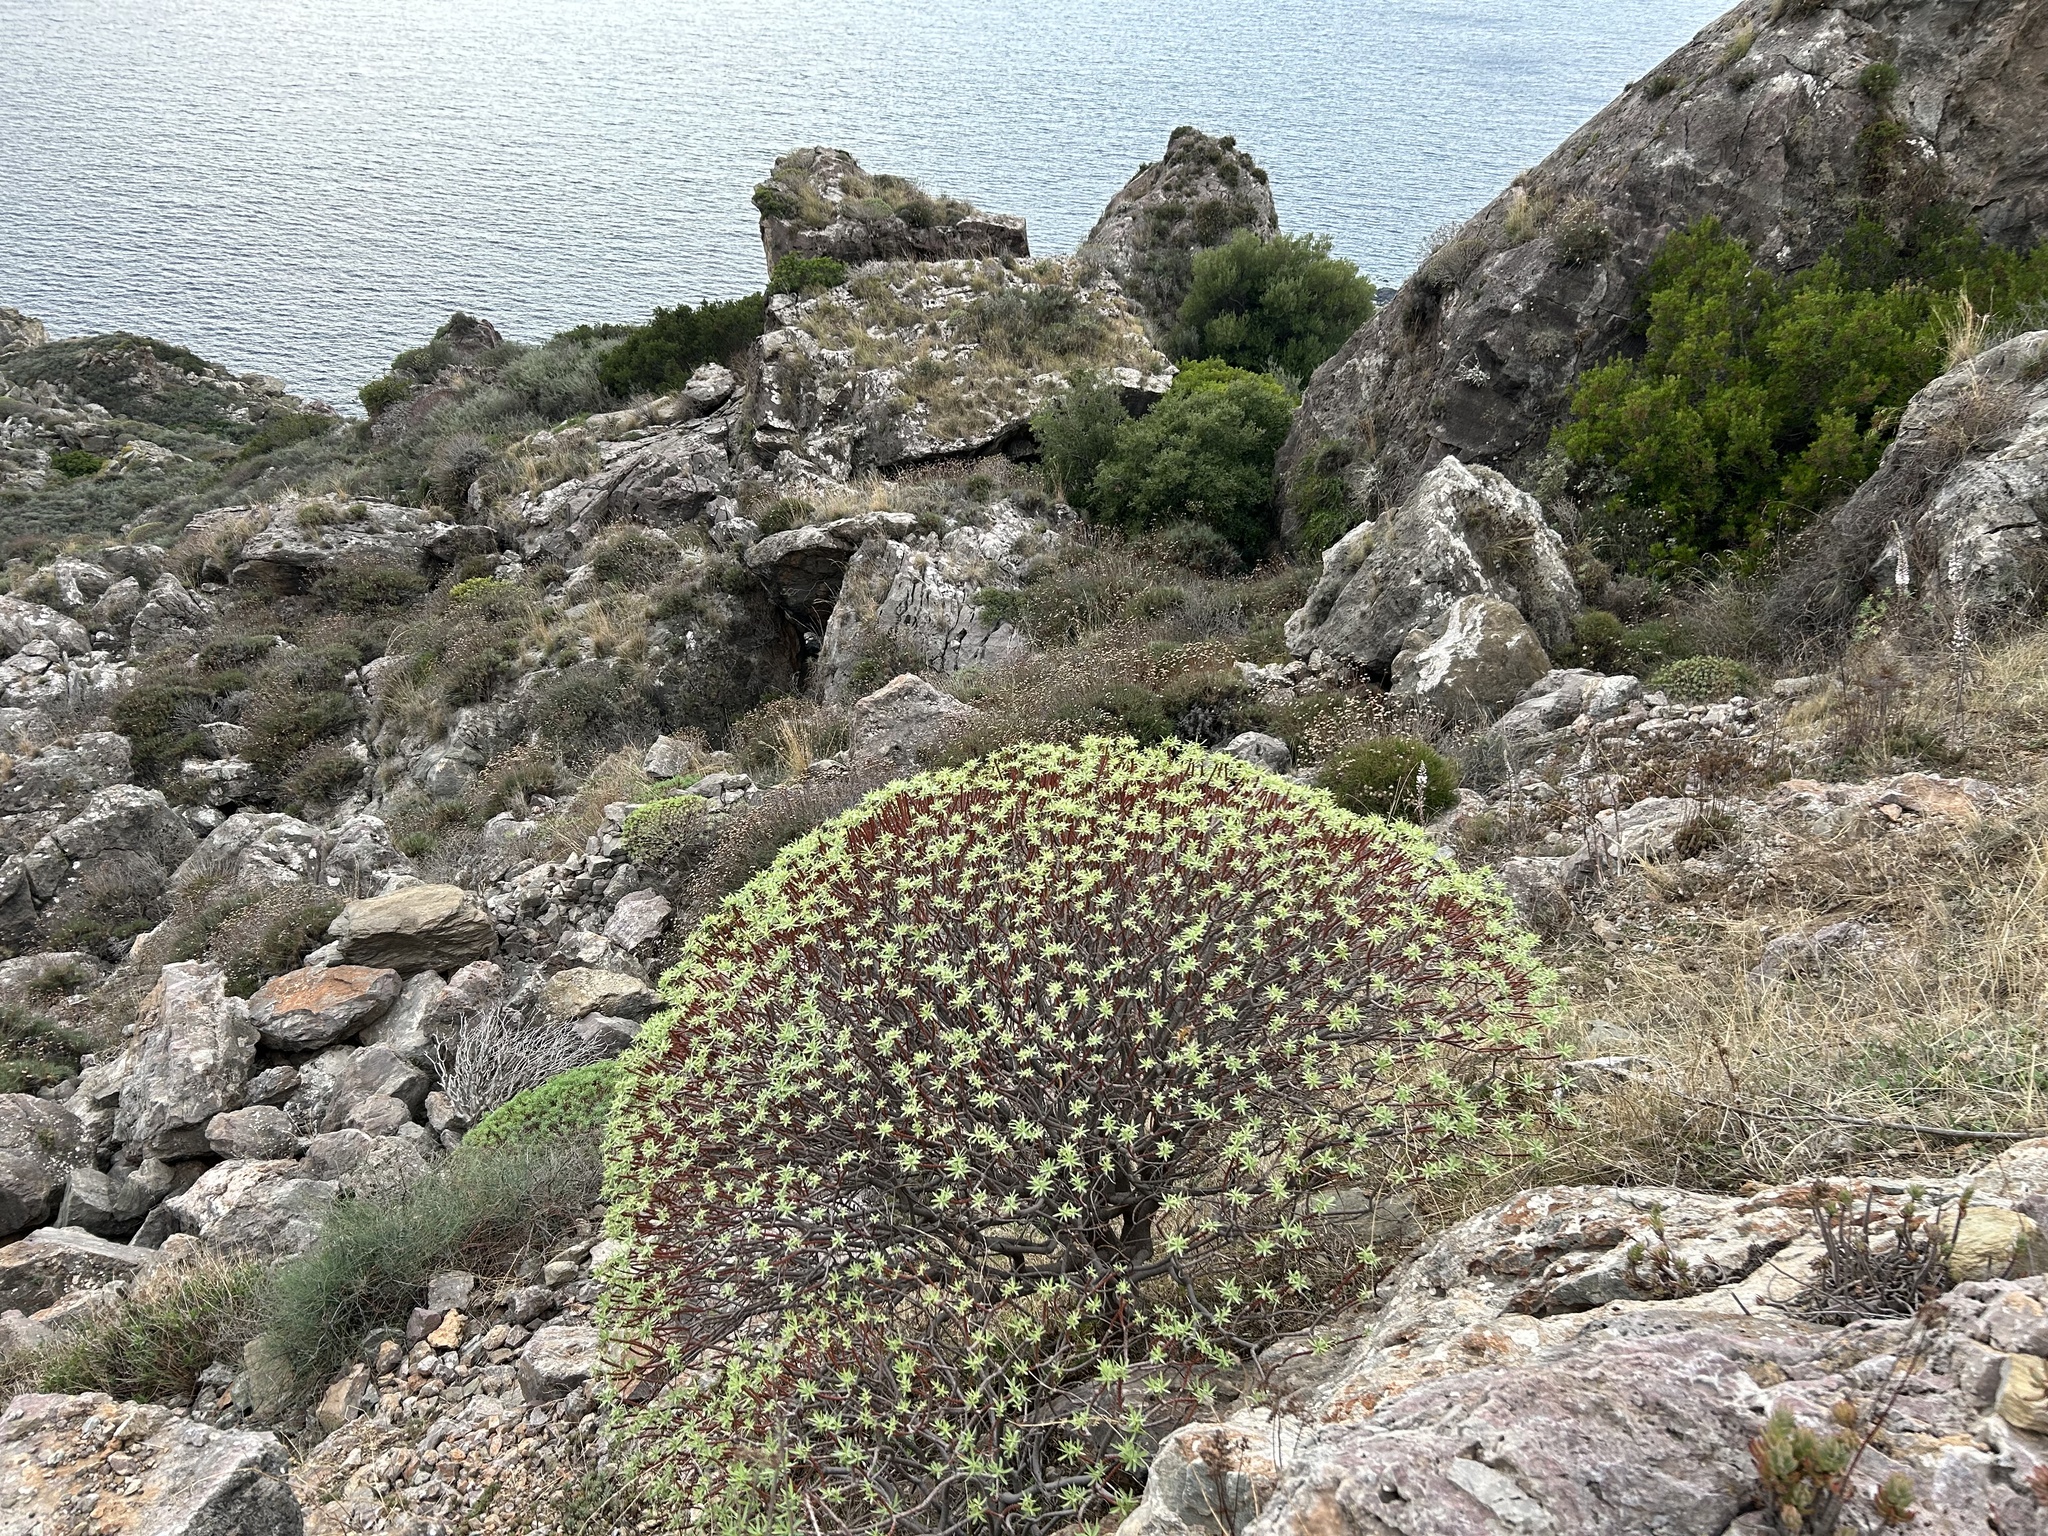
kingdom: Plantae
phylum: Tracheophyta
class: Magnoliopsida
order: Malpighiales
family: Euphorbiaceae
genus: Euphorbia
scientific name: Euphorbia dendroides
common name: Tree spurge
